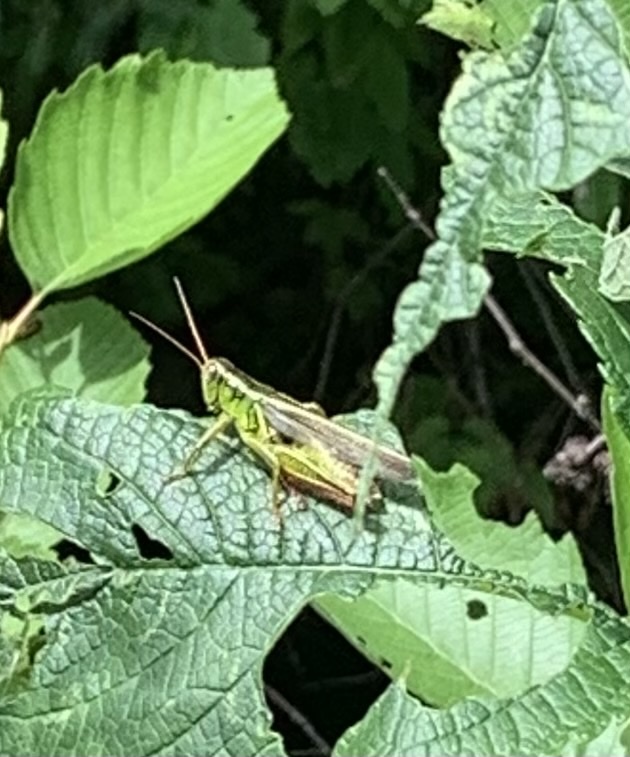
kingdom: Animalia
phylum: Arthropoda
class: Insecta
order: Orthoptera
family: Acrididae
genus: Melanoplus
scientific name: Melanoplus bivittatus
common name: Two-striped grasshopper
